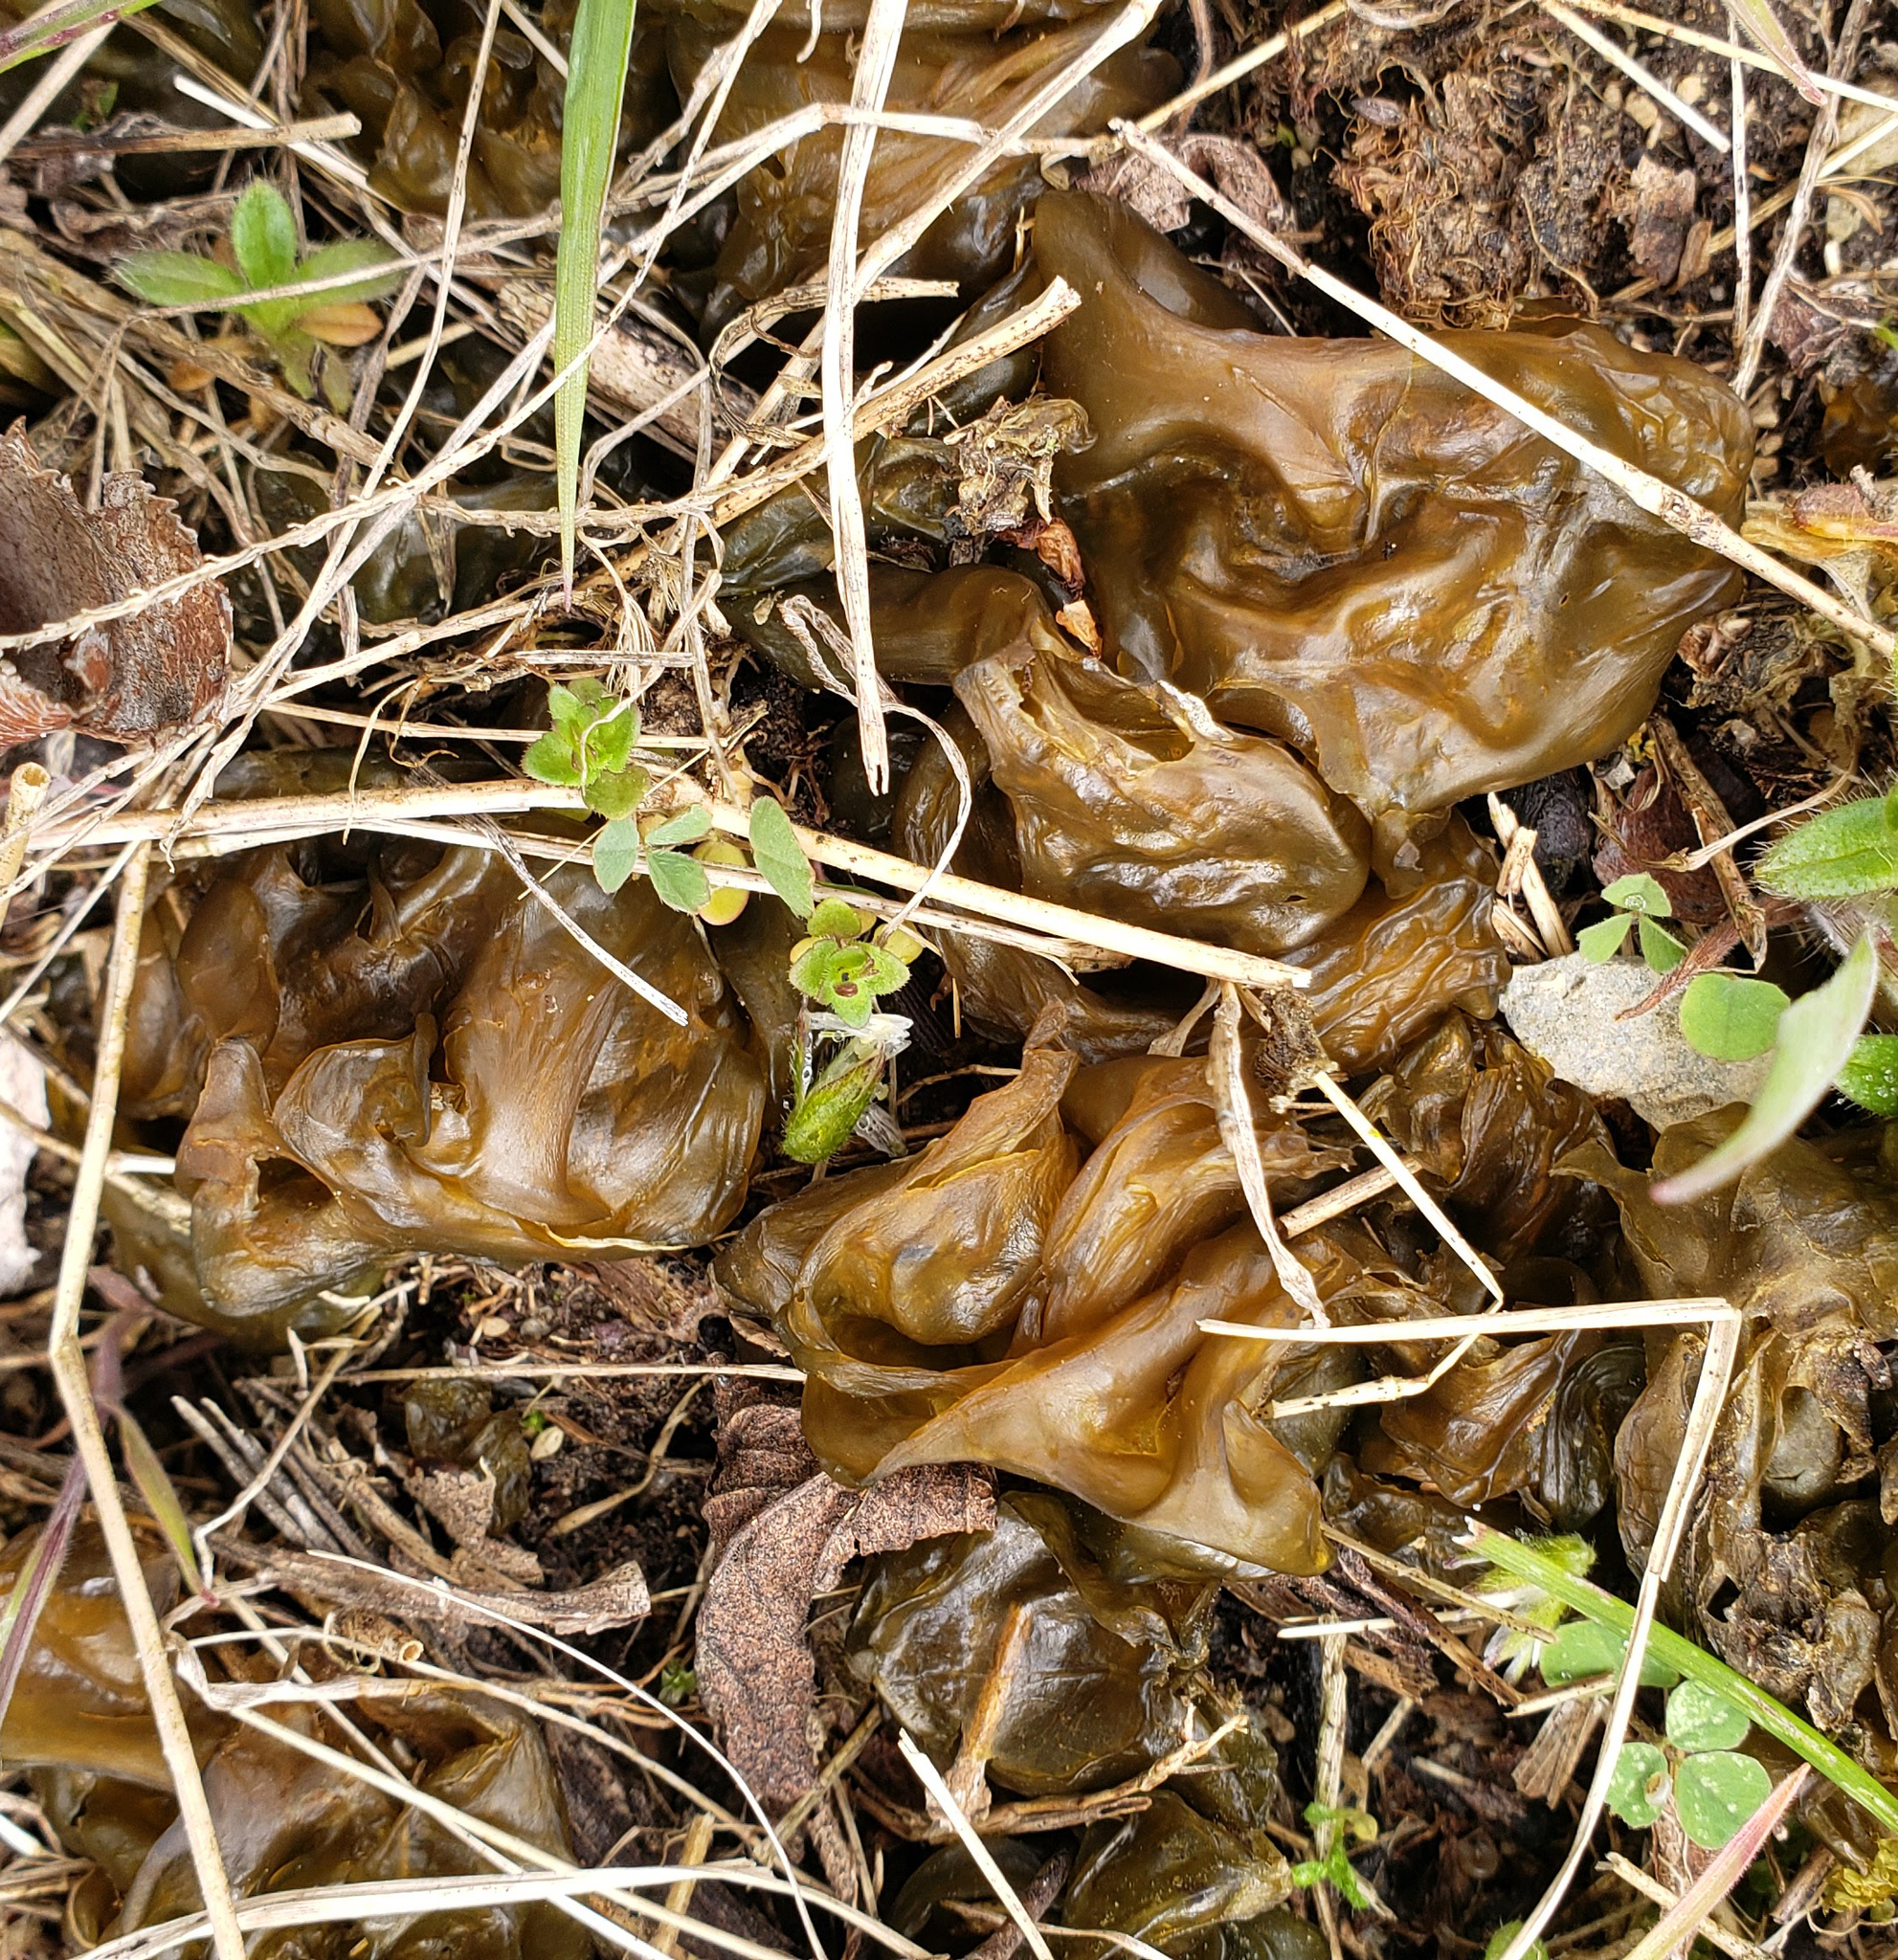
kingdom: Bacteria
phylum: Cyanobacteria
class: Cyanobacteriia
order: Cyanobacteriales
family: Nostocaceae
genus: Nostoc
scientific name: Nostoc commune
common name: Star jelly
